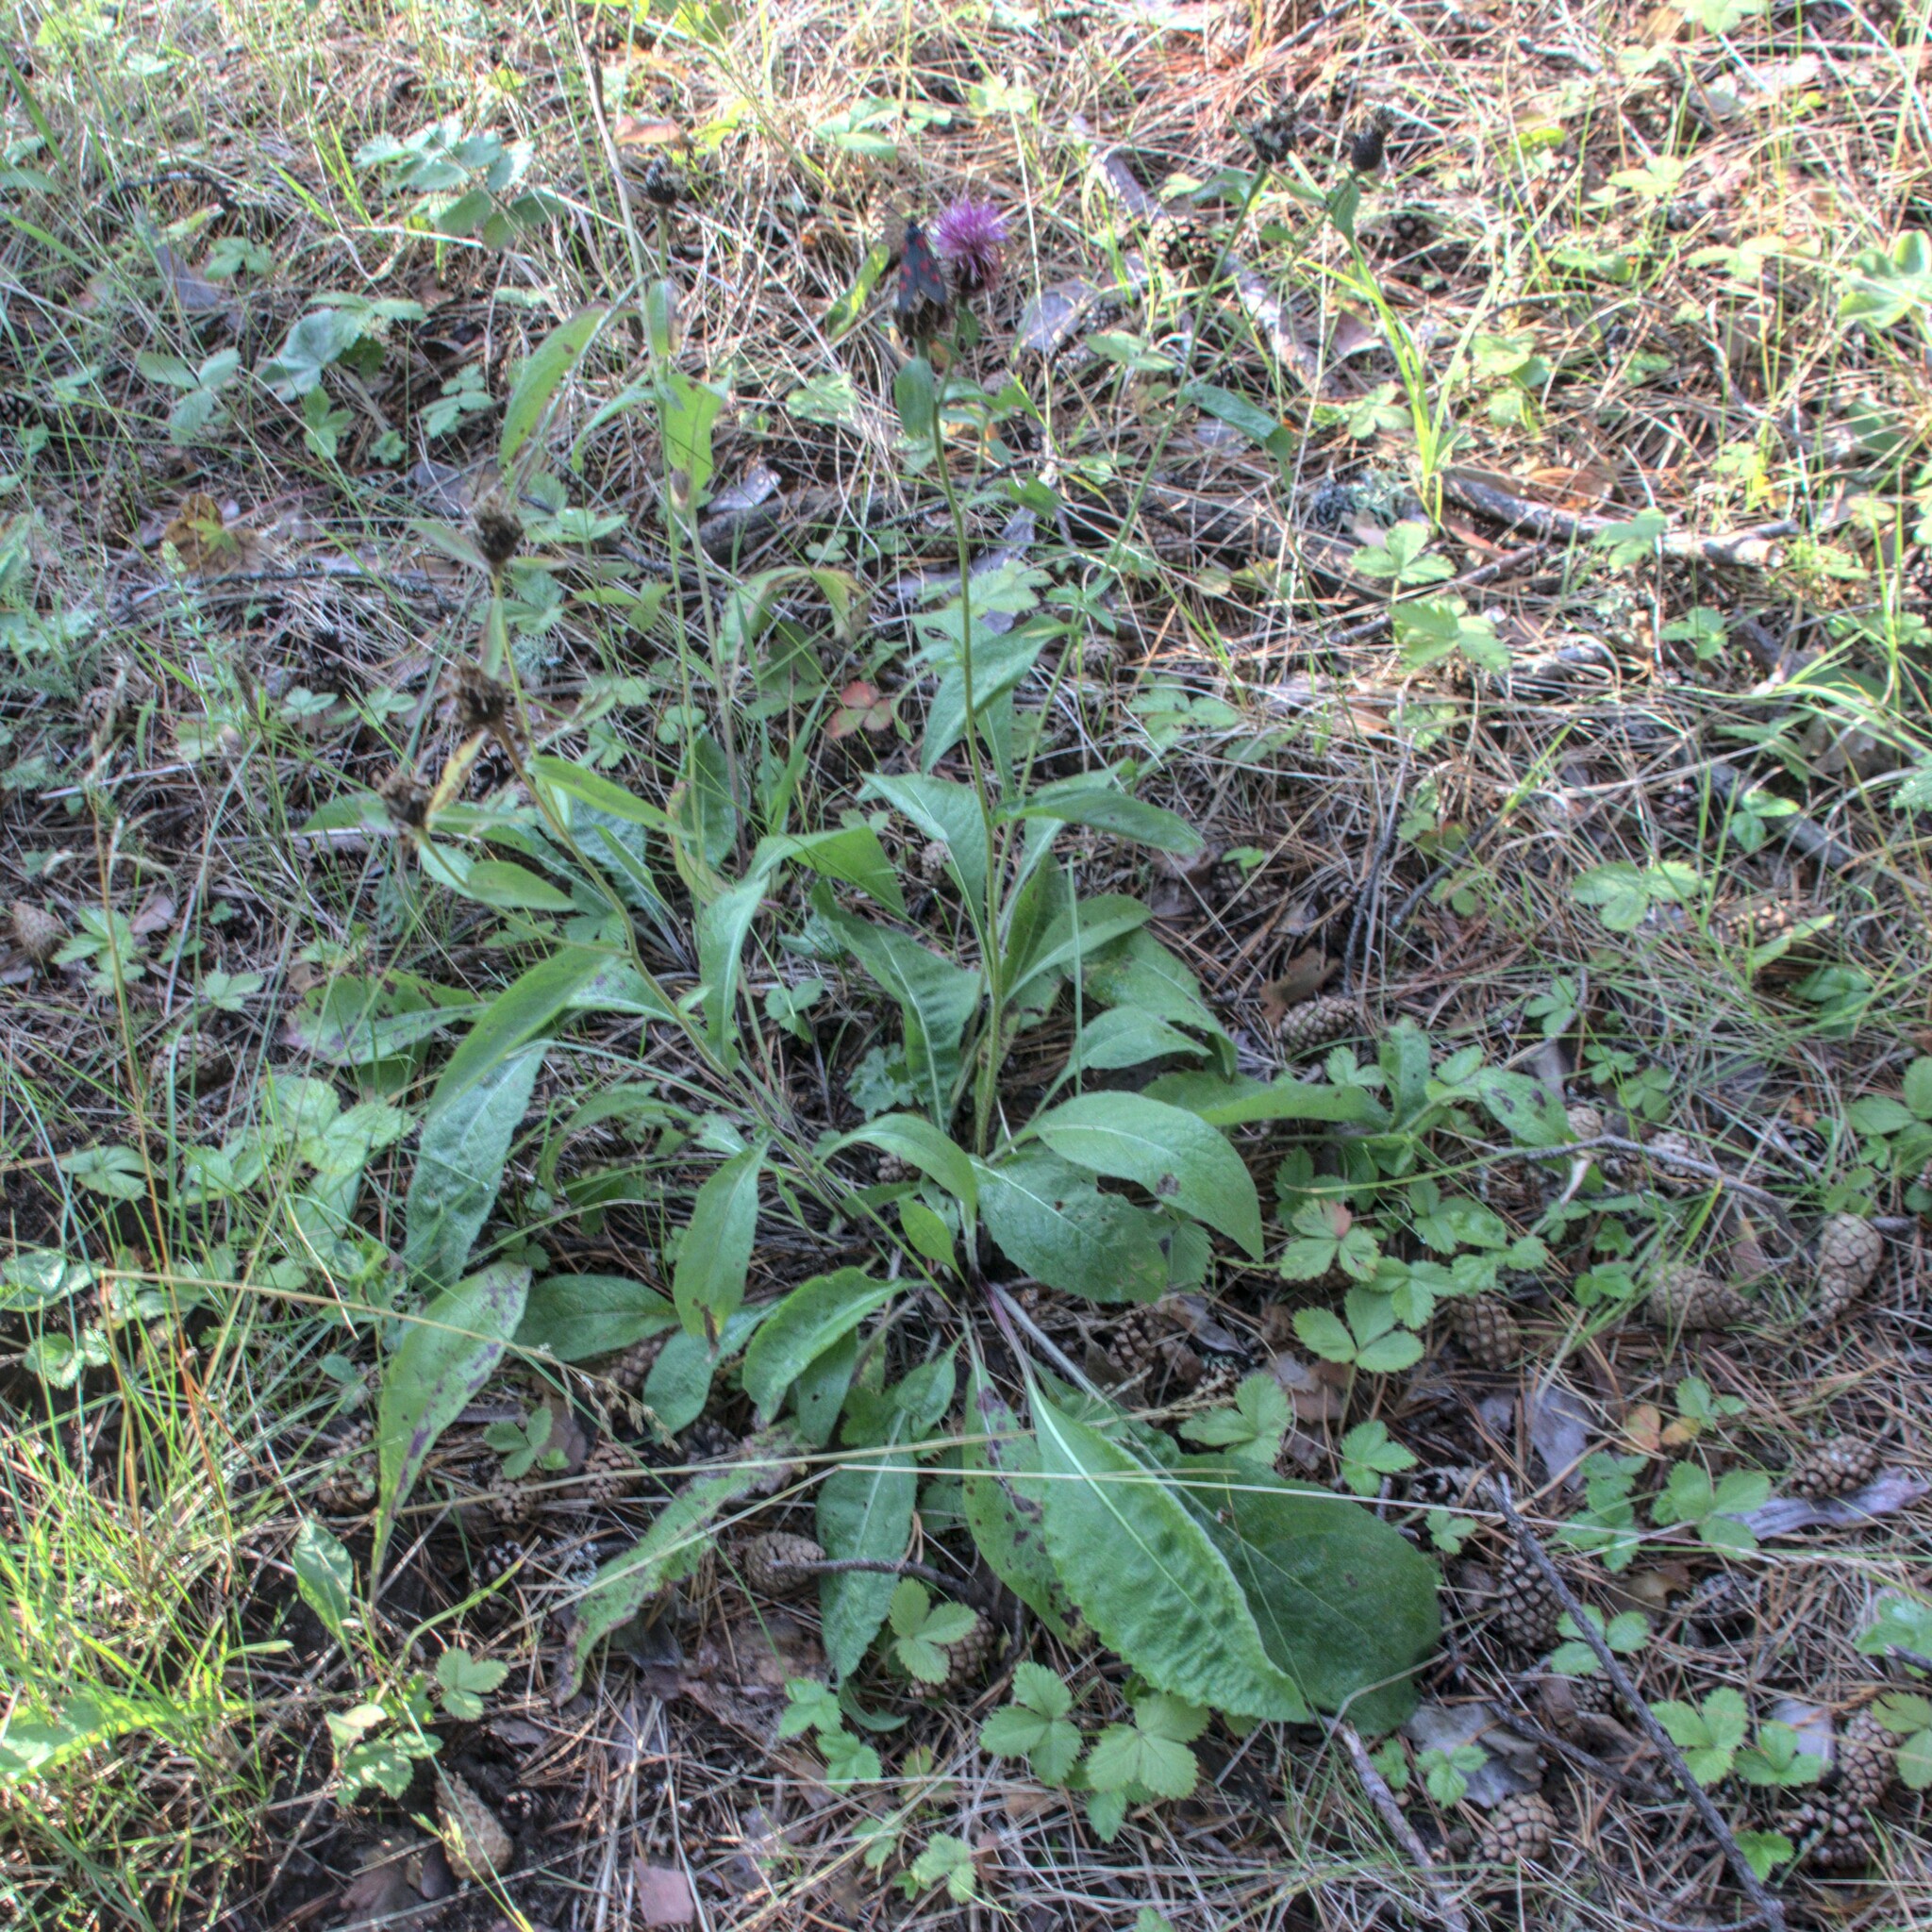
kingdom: Animalia
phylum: Arthropoda
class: Insecta
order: Lepidoptera
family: Zygaenidae
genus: Zygaena
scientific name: Zygaena lonicerae
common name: Narrow-bordered five-spot burnet
